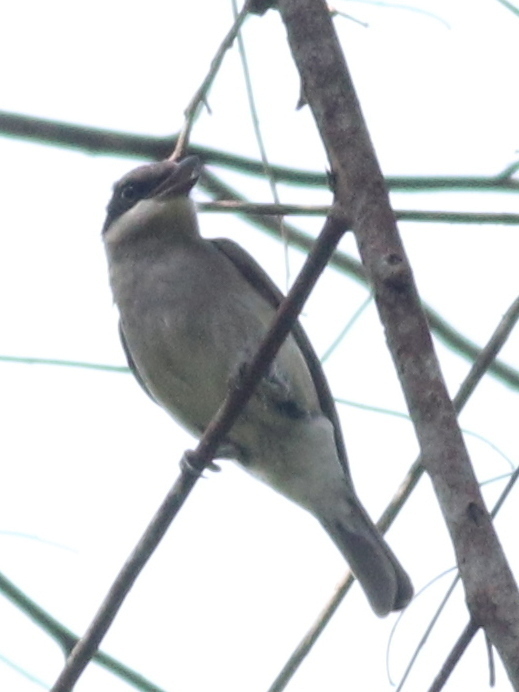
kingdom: Animalia
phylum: Chordata
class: Aves
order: Passeriformes
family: Tephrodornithidae
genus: Tephrodornis
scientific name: Tephrodornis virgatus
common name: Large woodshrike
